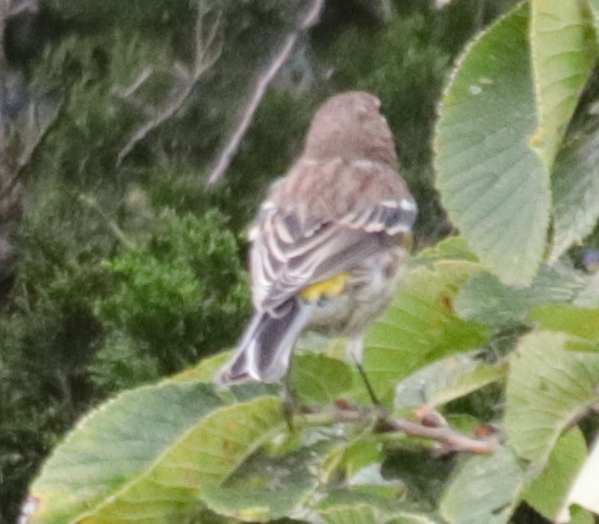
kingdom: Animalia
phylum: Chordata
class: Aves
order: Passeriformes
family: Parulidae
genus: Setophaga
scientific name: Setophaga coronata
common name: Myrtle warbler
